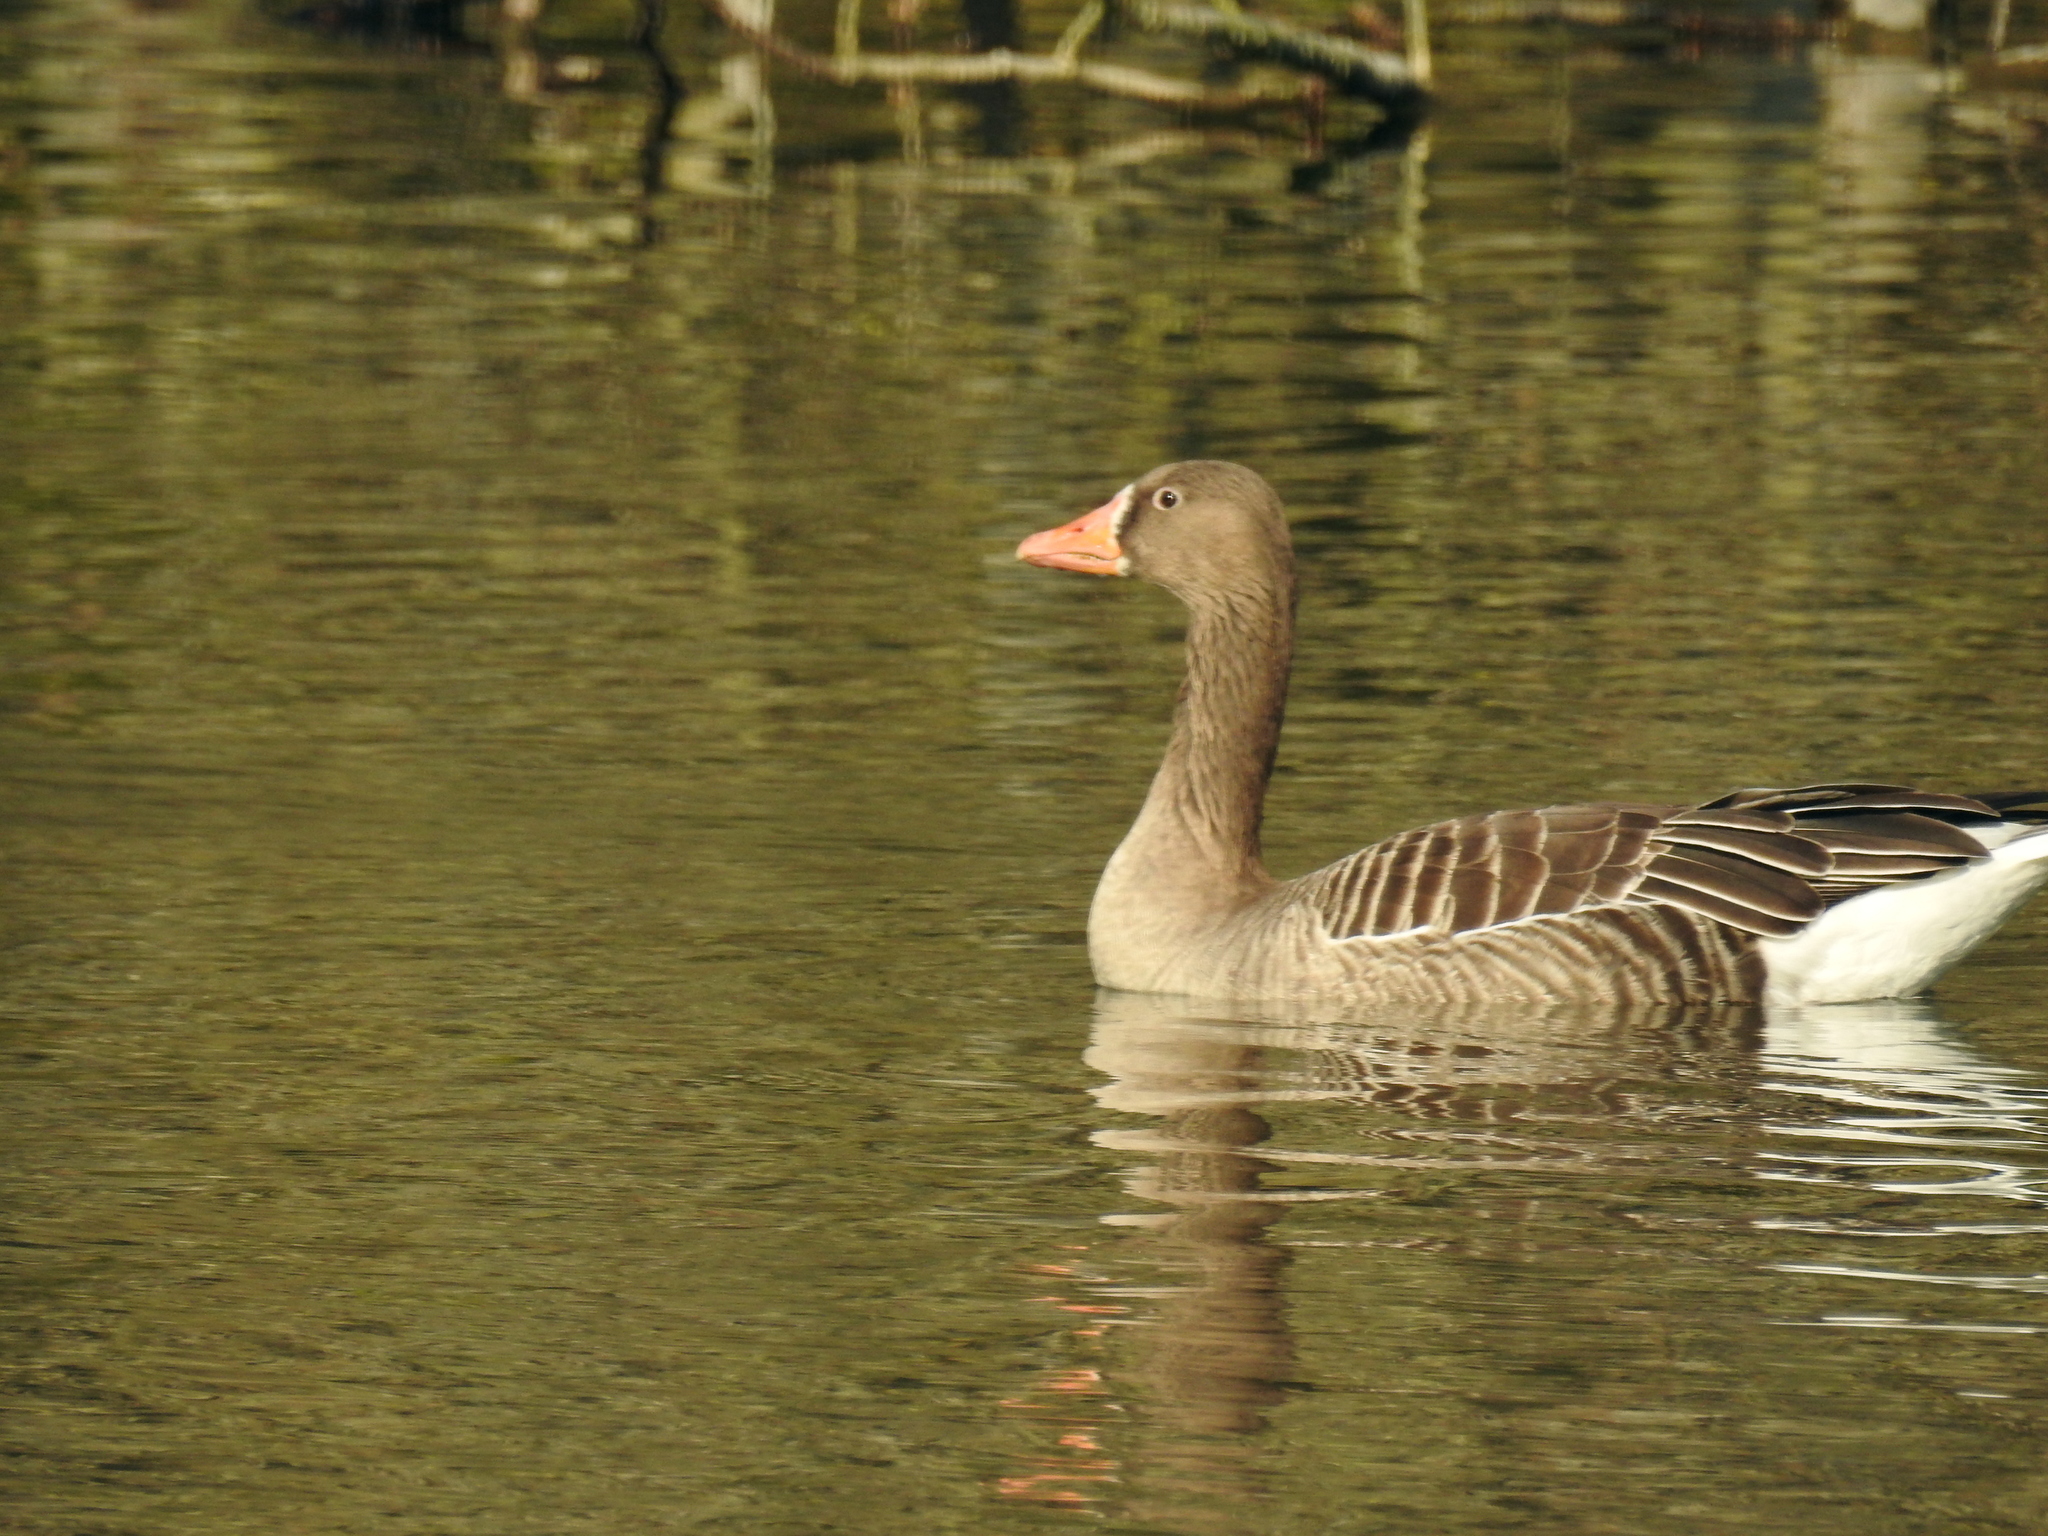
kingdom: Animalia
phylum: Chordata
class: Aves
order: Anseriformes
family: Anatidae
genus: Anser
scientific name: Anser anser
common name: Greylag goose
